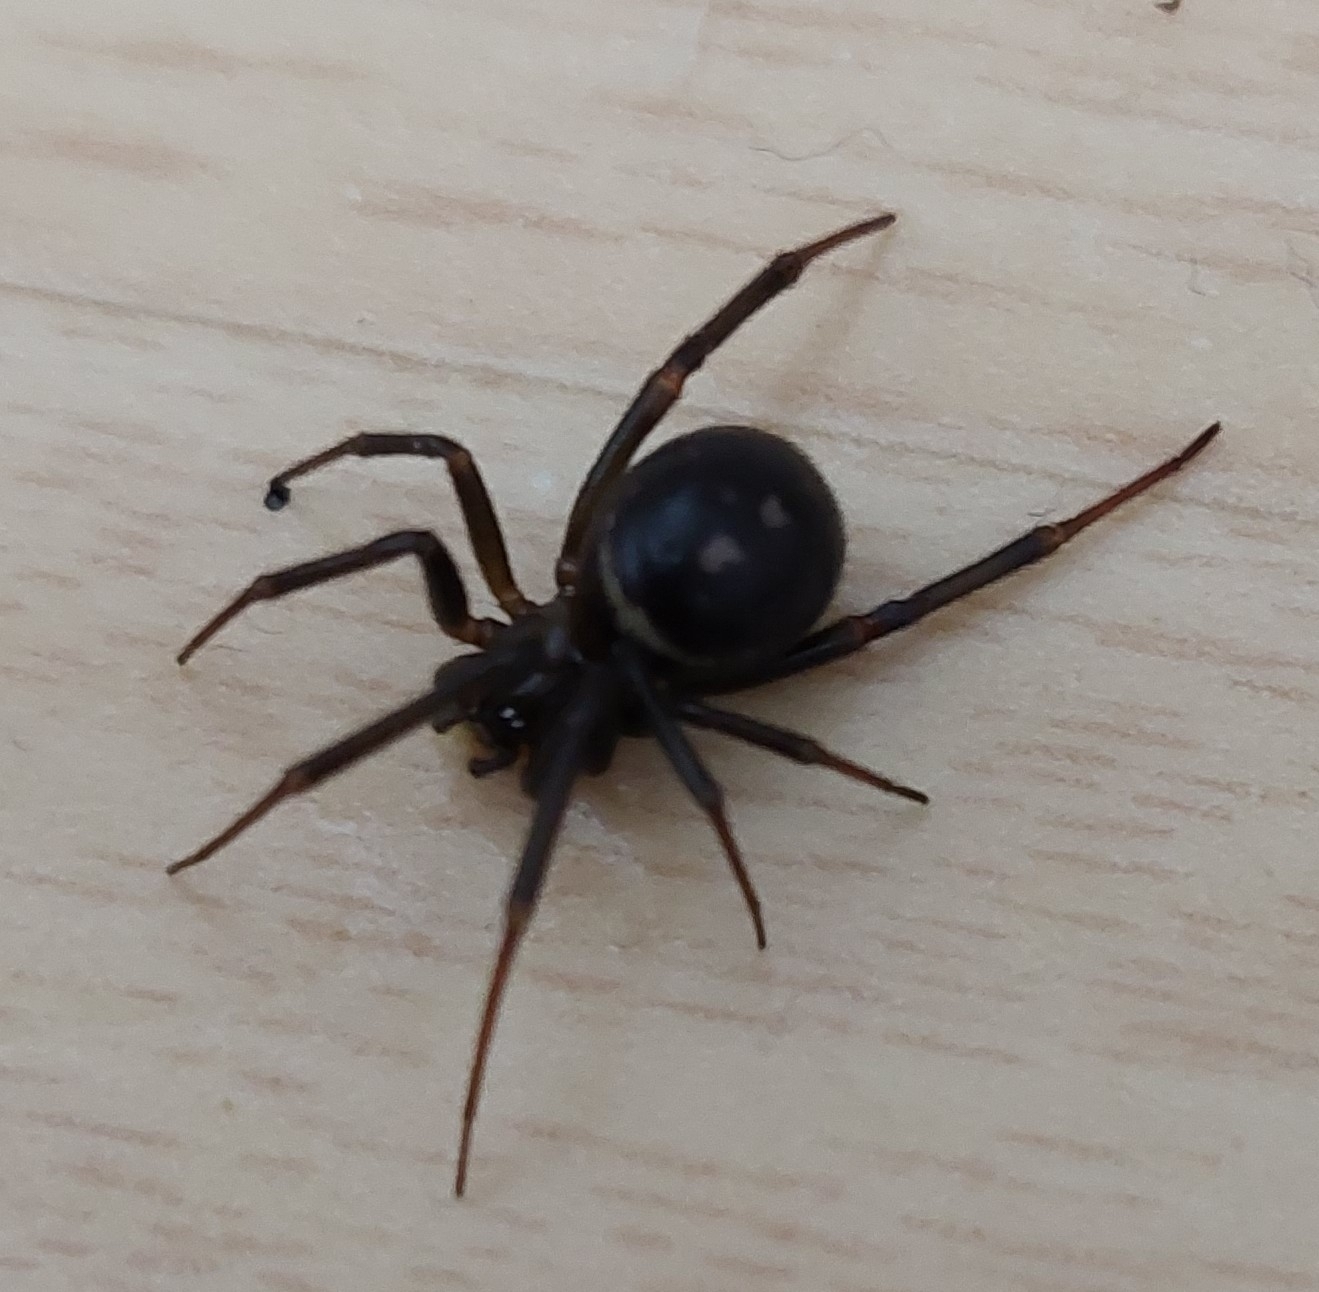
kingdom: Animalia
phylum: Arthropoda
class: Arachnida
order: Araneae
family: Theridiidae
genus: Steatoda
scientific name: Steatoda grossa
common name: False black widow
